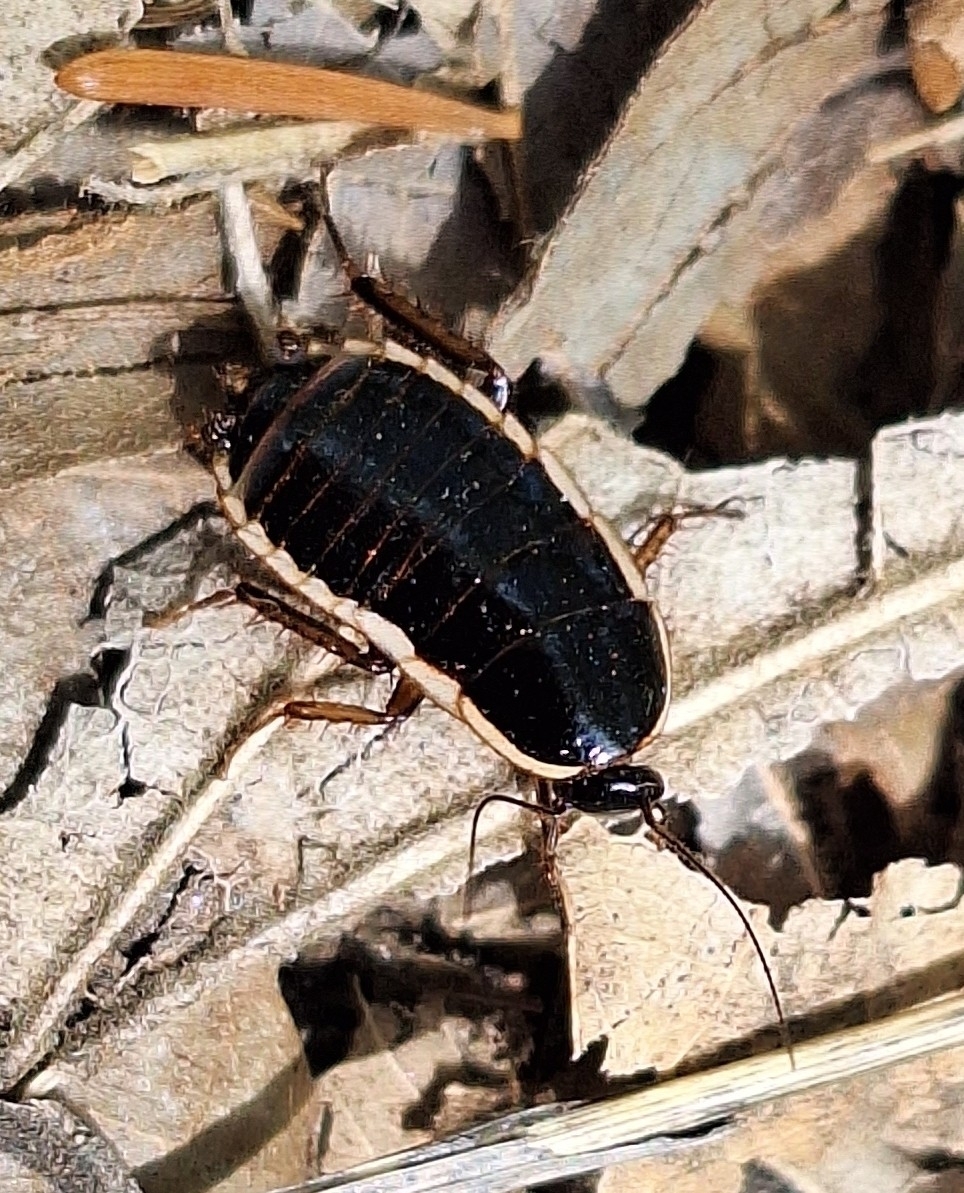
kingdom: Animalia
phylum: Arthropoda
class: Insecta
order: Blattodea
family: Ectobiidae
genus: Loboptera
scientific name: Loboptera decipiens
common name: Lobe-winged cockroach
